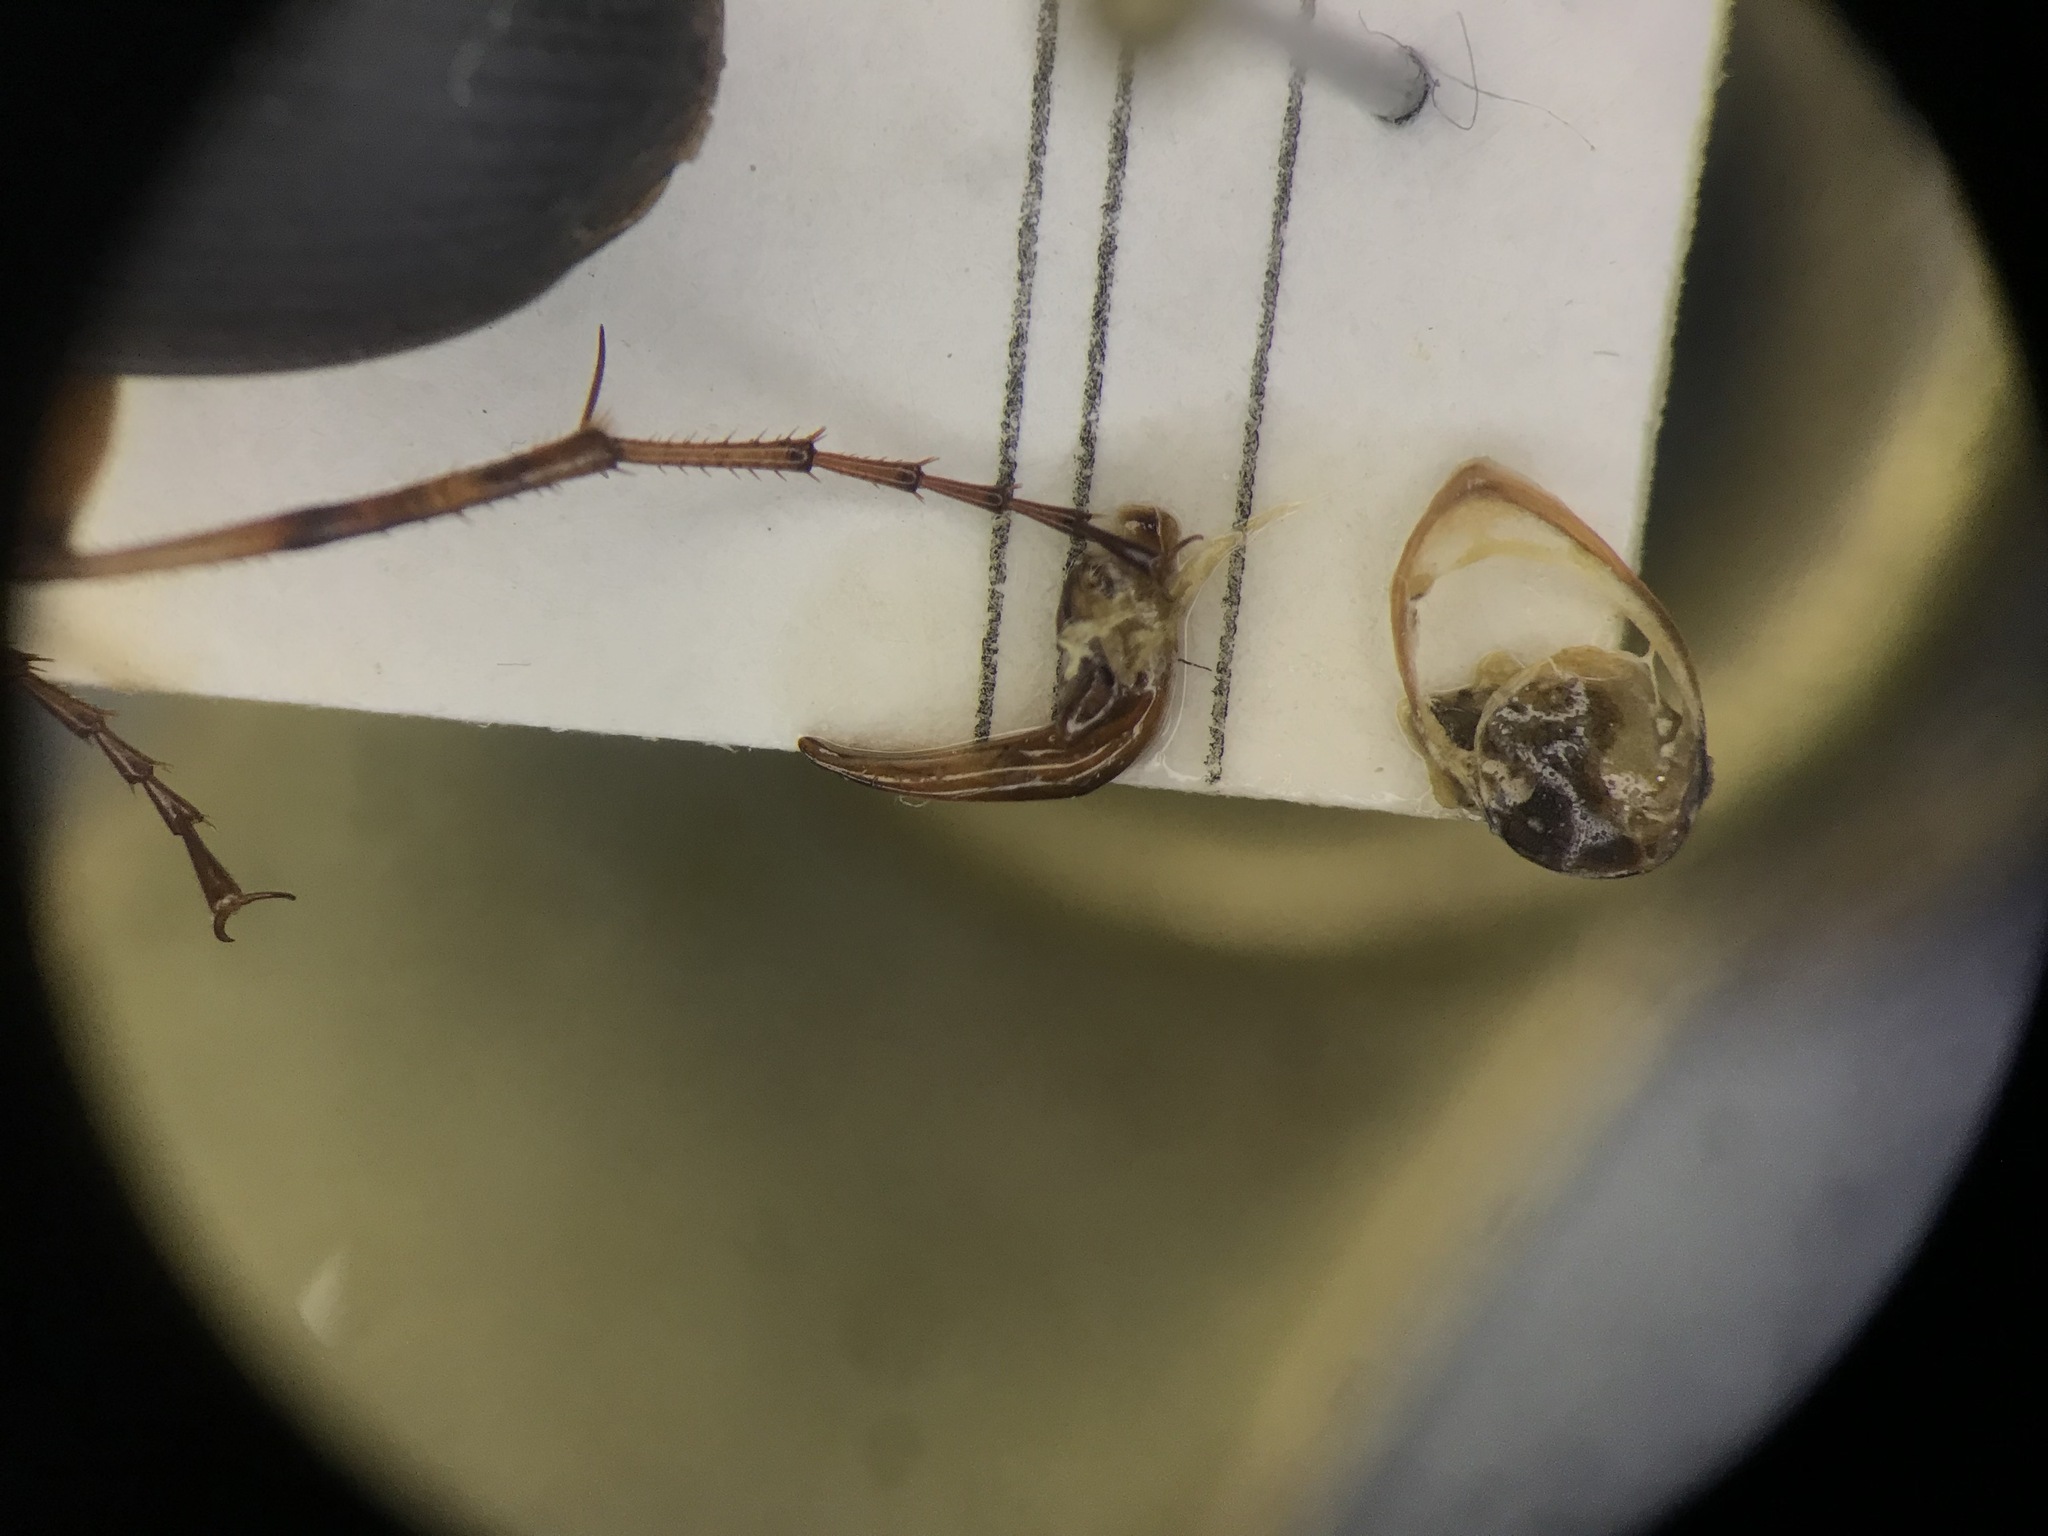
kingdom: Animalia
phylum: Arthropoda
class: Insecta
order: Coleoptera
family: Carabidae
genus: Chlaenius
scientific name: Chlaenius impunctifrons
